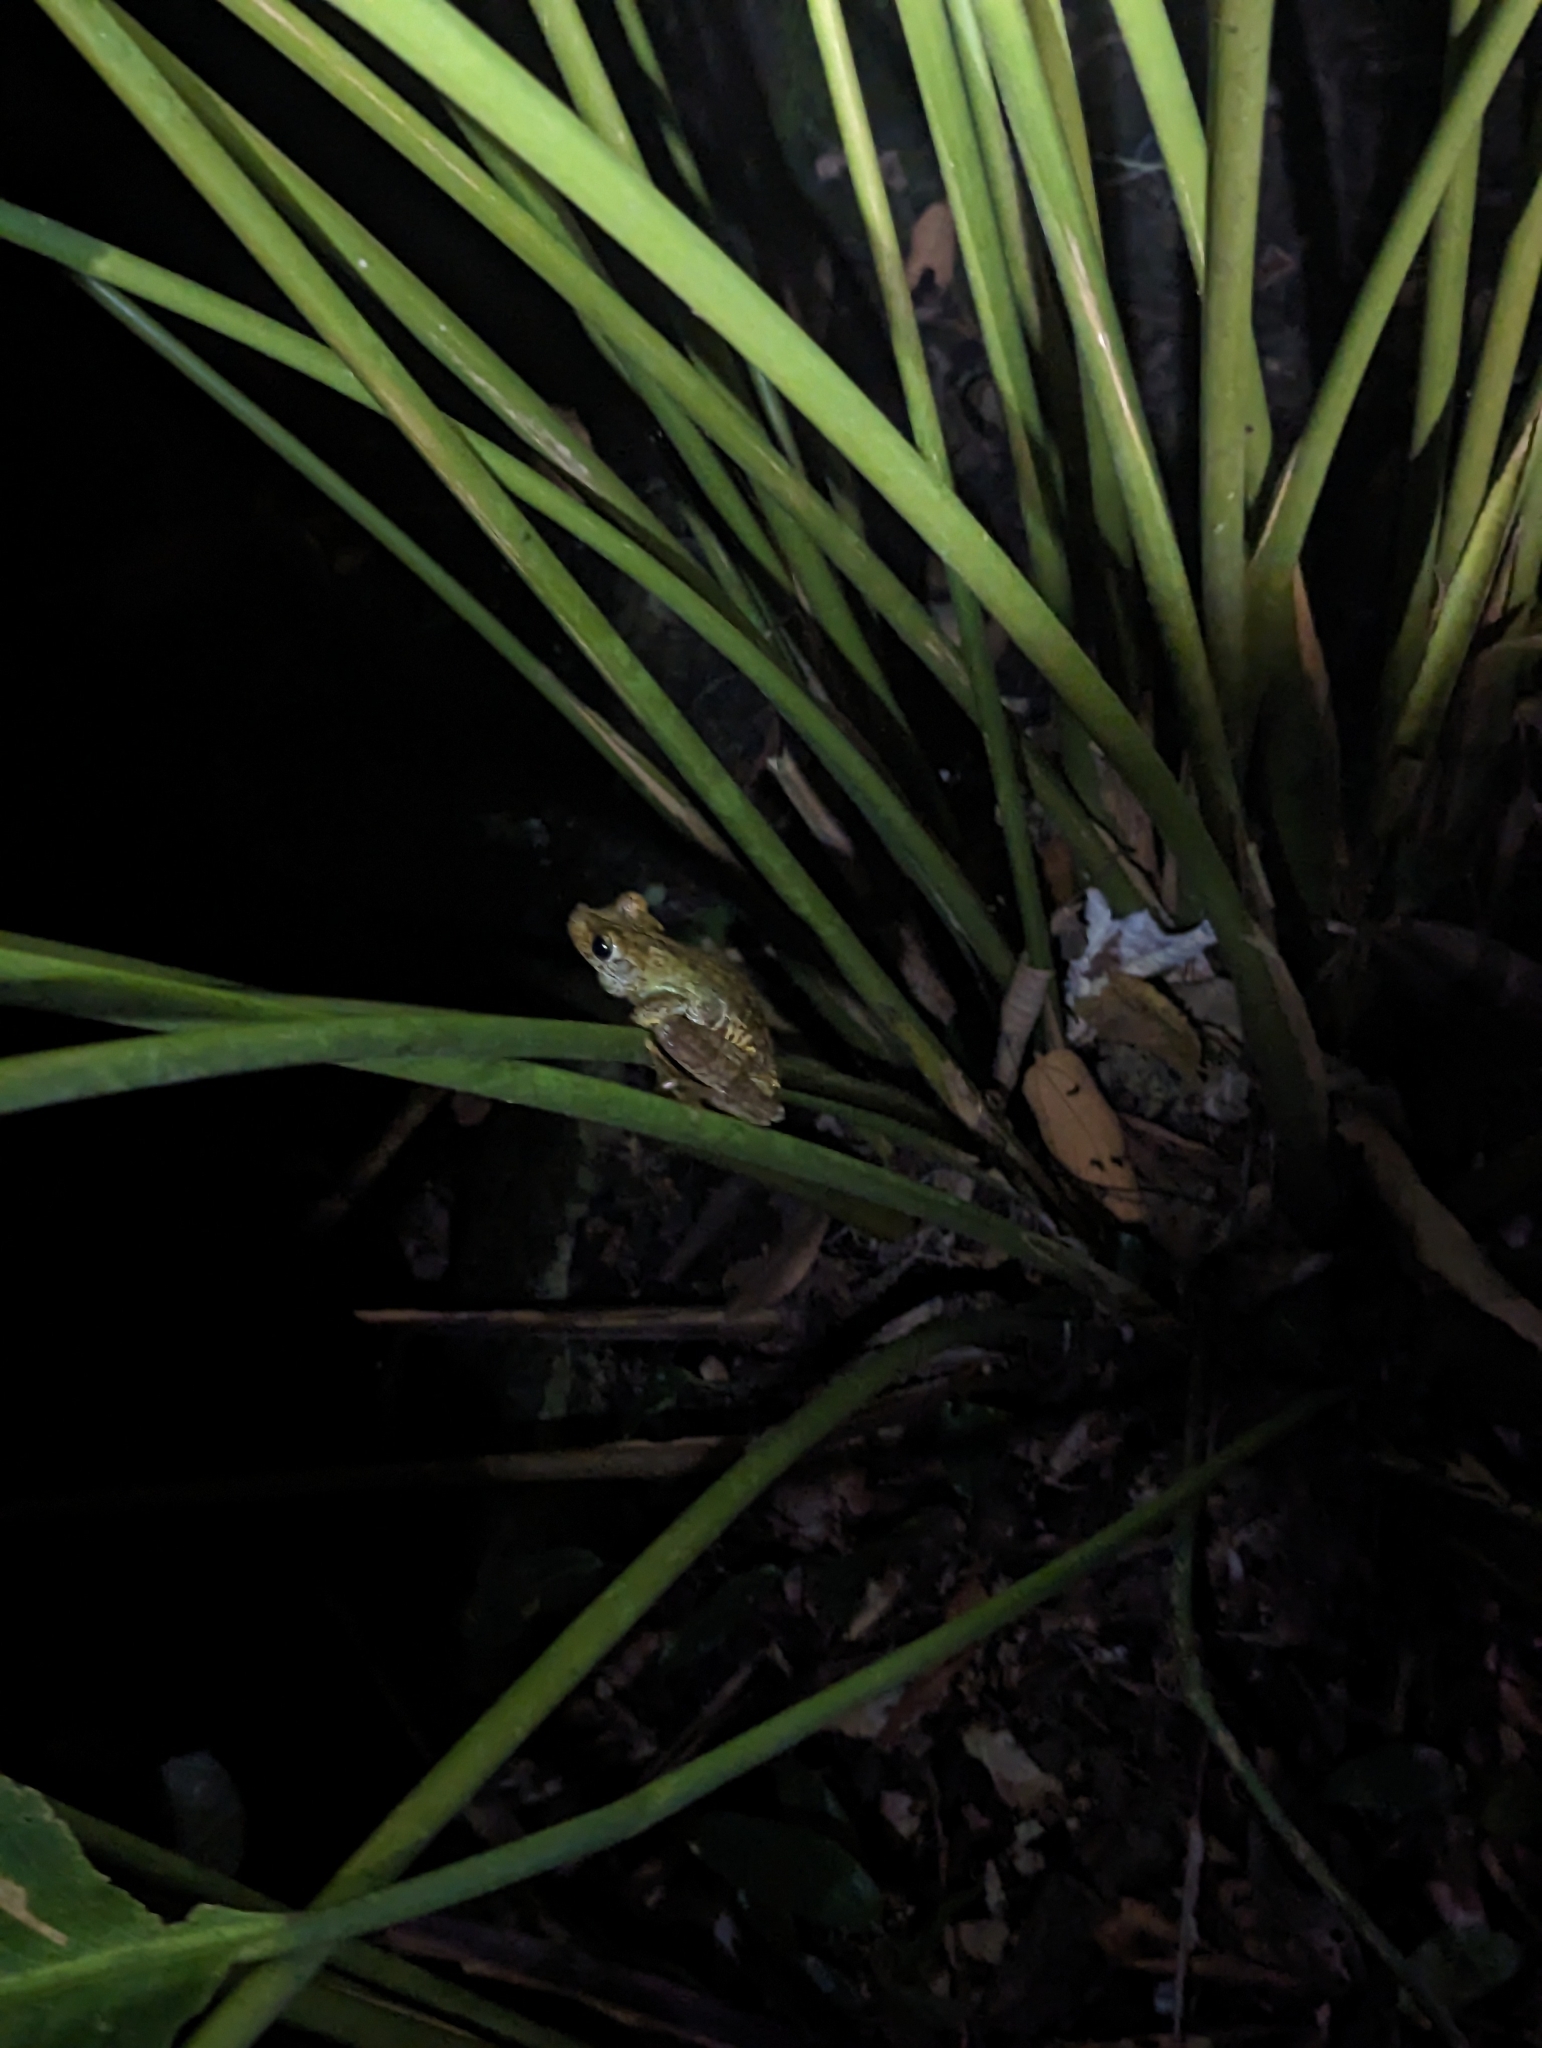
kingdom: Animalia
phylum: Chordata
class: Amphibia
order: Anura
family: Hylidae
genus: Boana
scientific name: Boana rosenbergi
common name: Rosenberg´s gladiator treefrog
